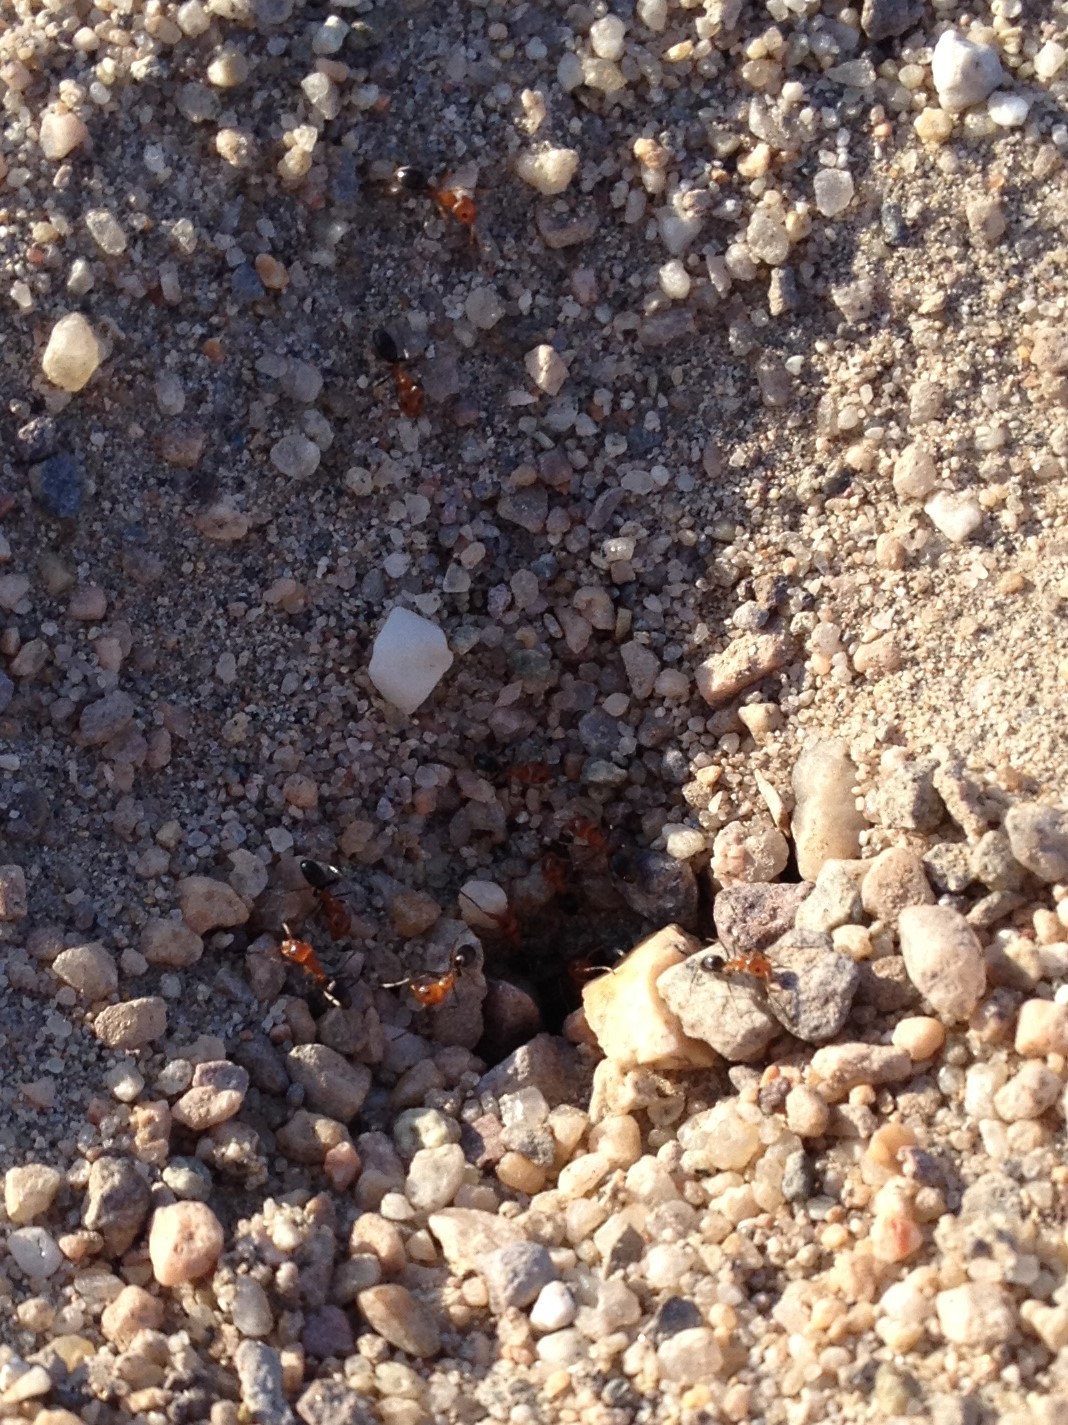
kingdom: Animalia
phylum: Arthropoda
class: Insecta
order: Hymenoptera
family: Formicidae
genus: Dorymyrmex
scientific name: Dorymyrmex bicolor
